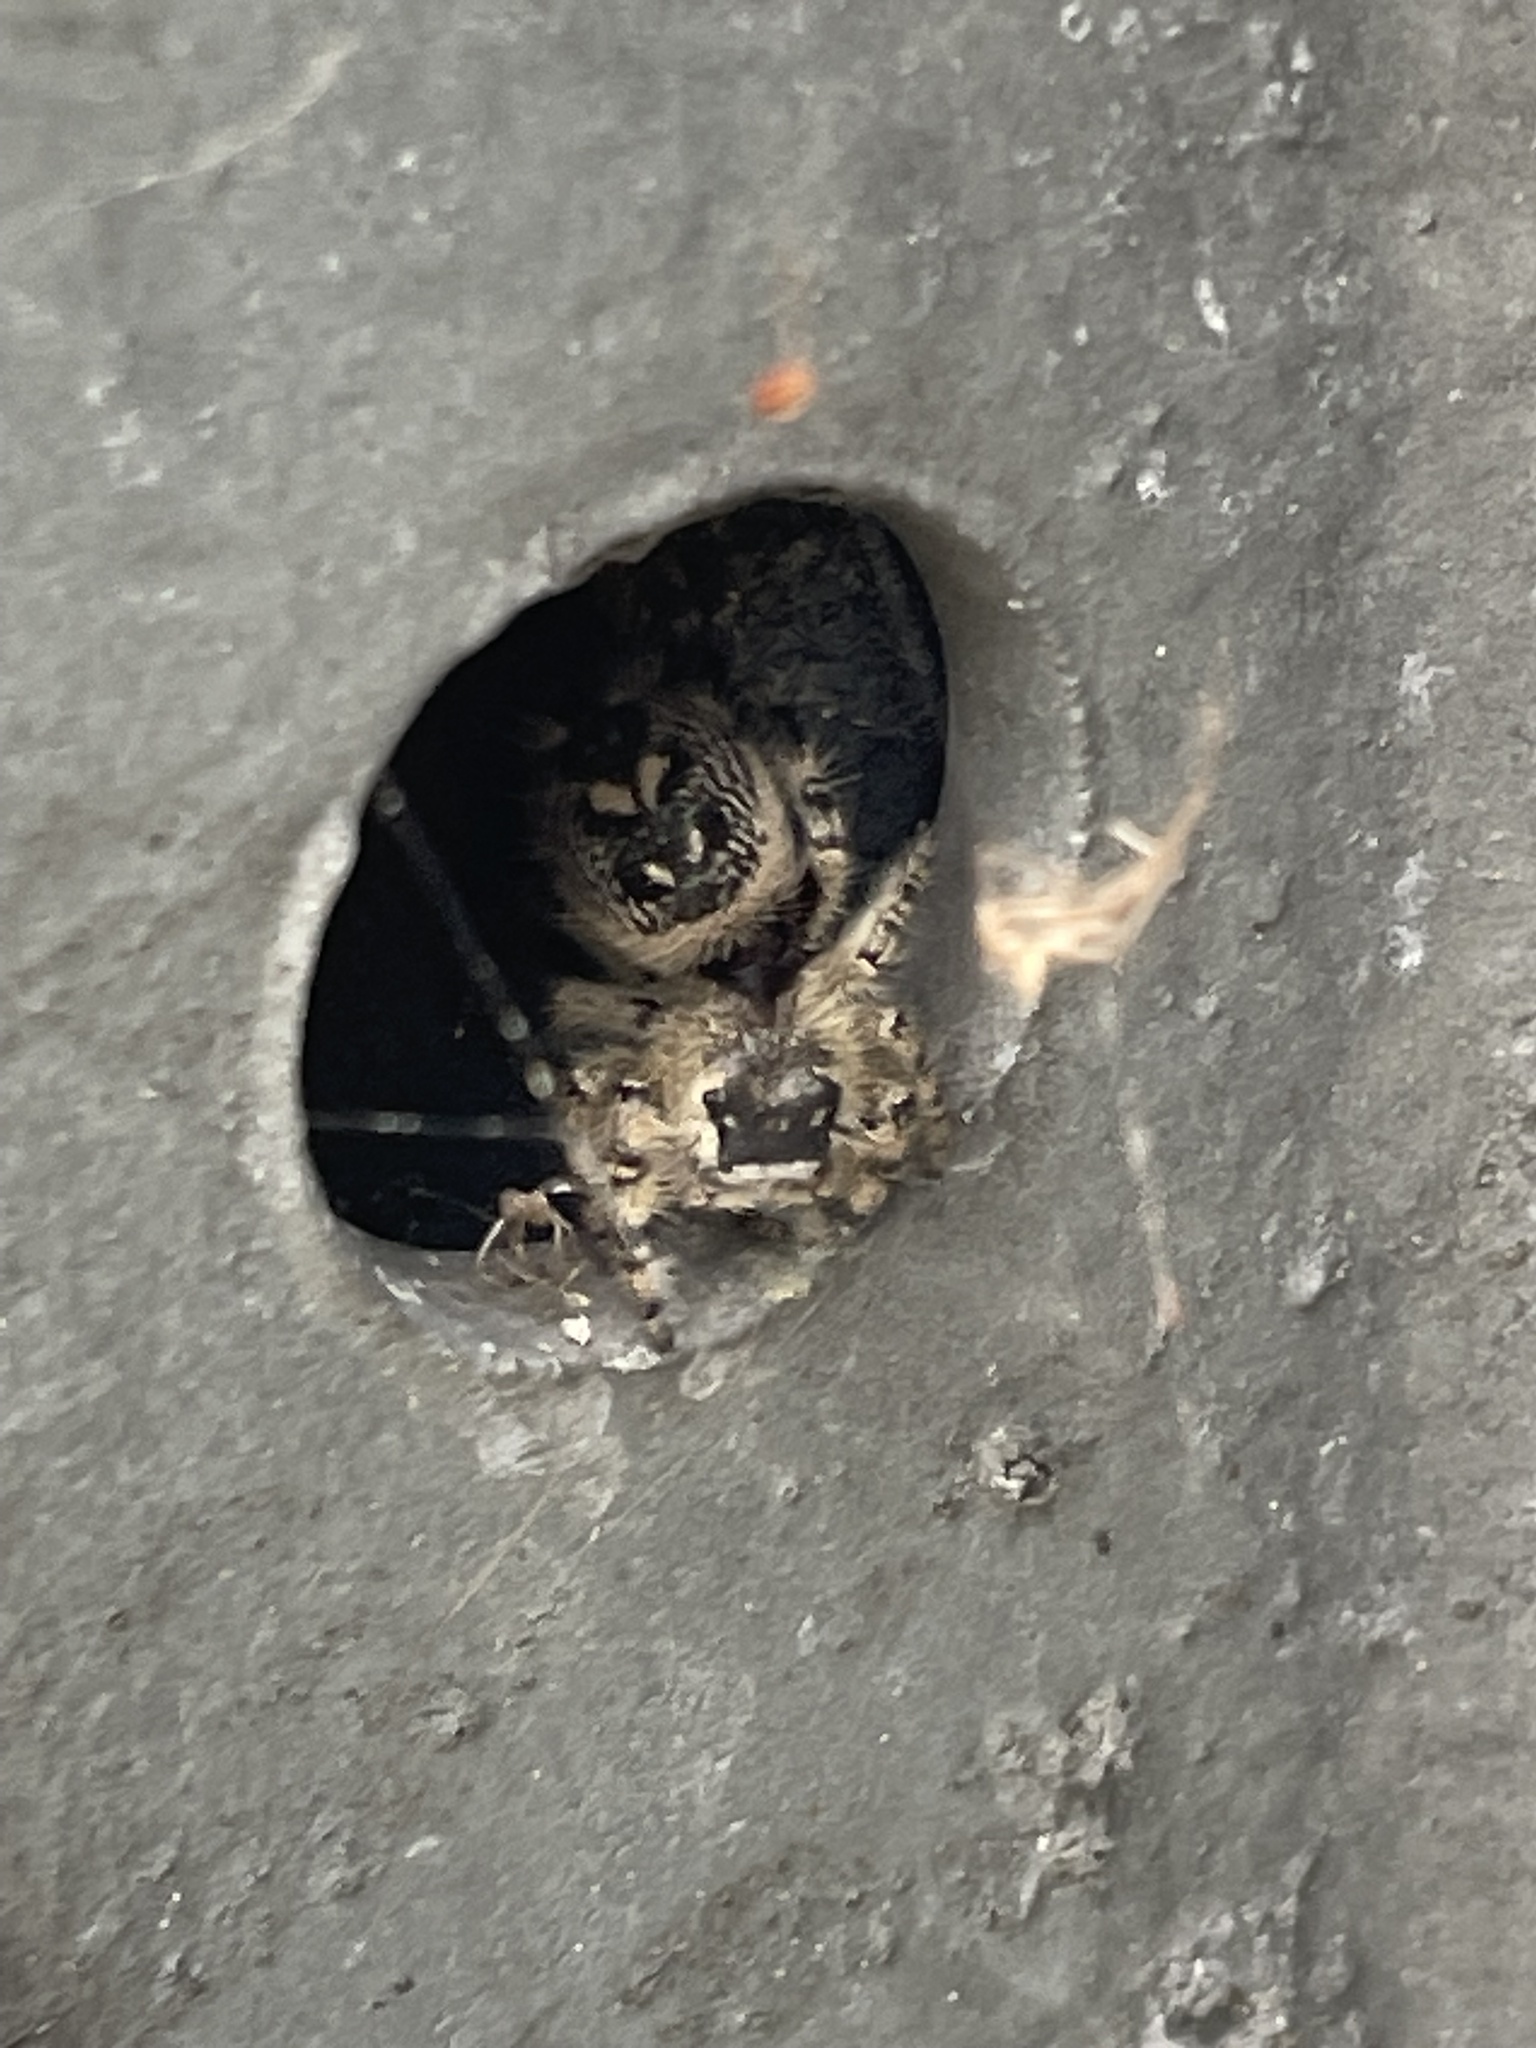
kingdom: Animalia
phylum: Arthropoda
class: Arachnida
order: Araneae
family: Salticidae
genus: Phidippus
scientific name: Phidippus otiosus
